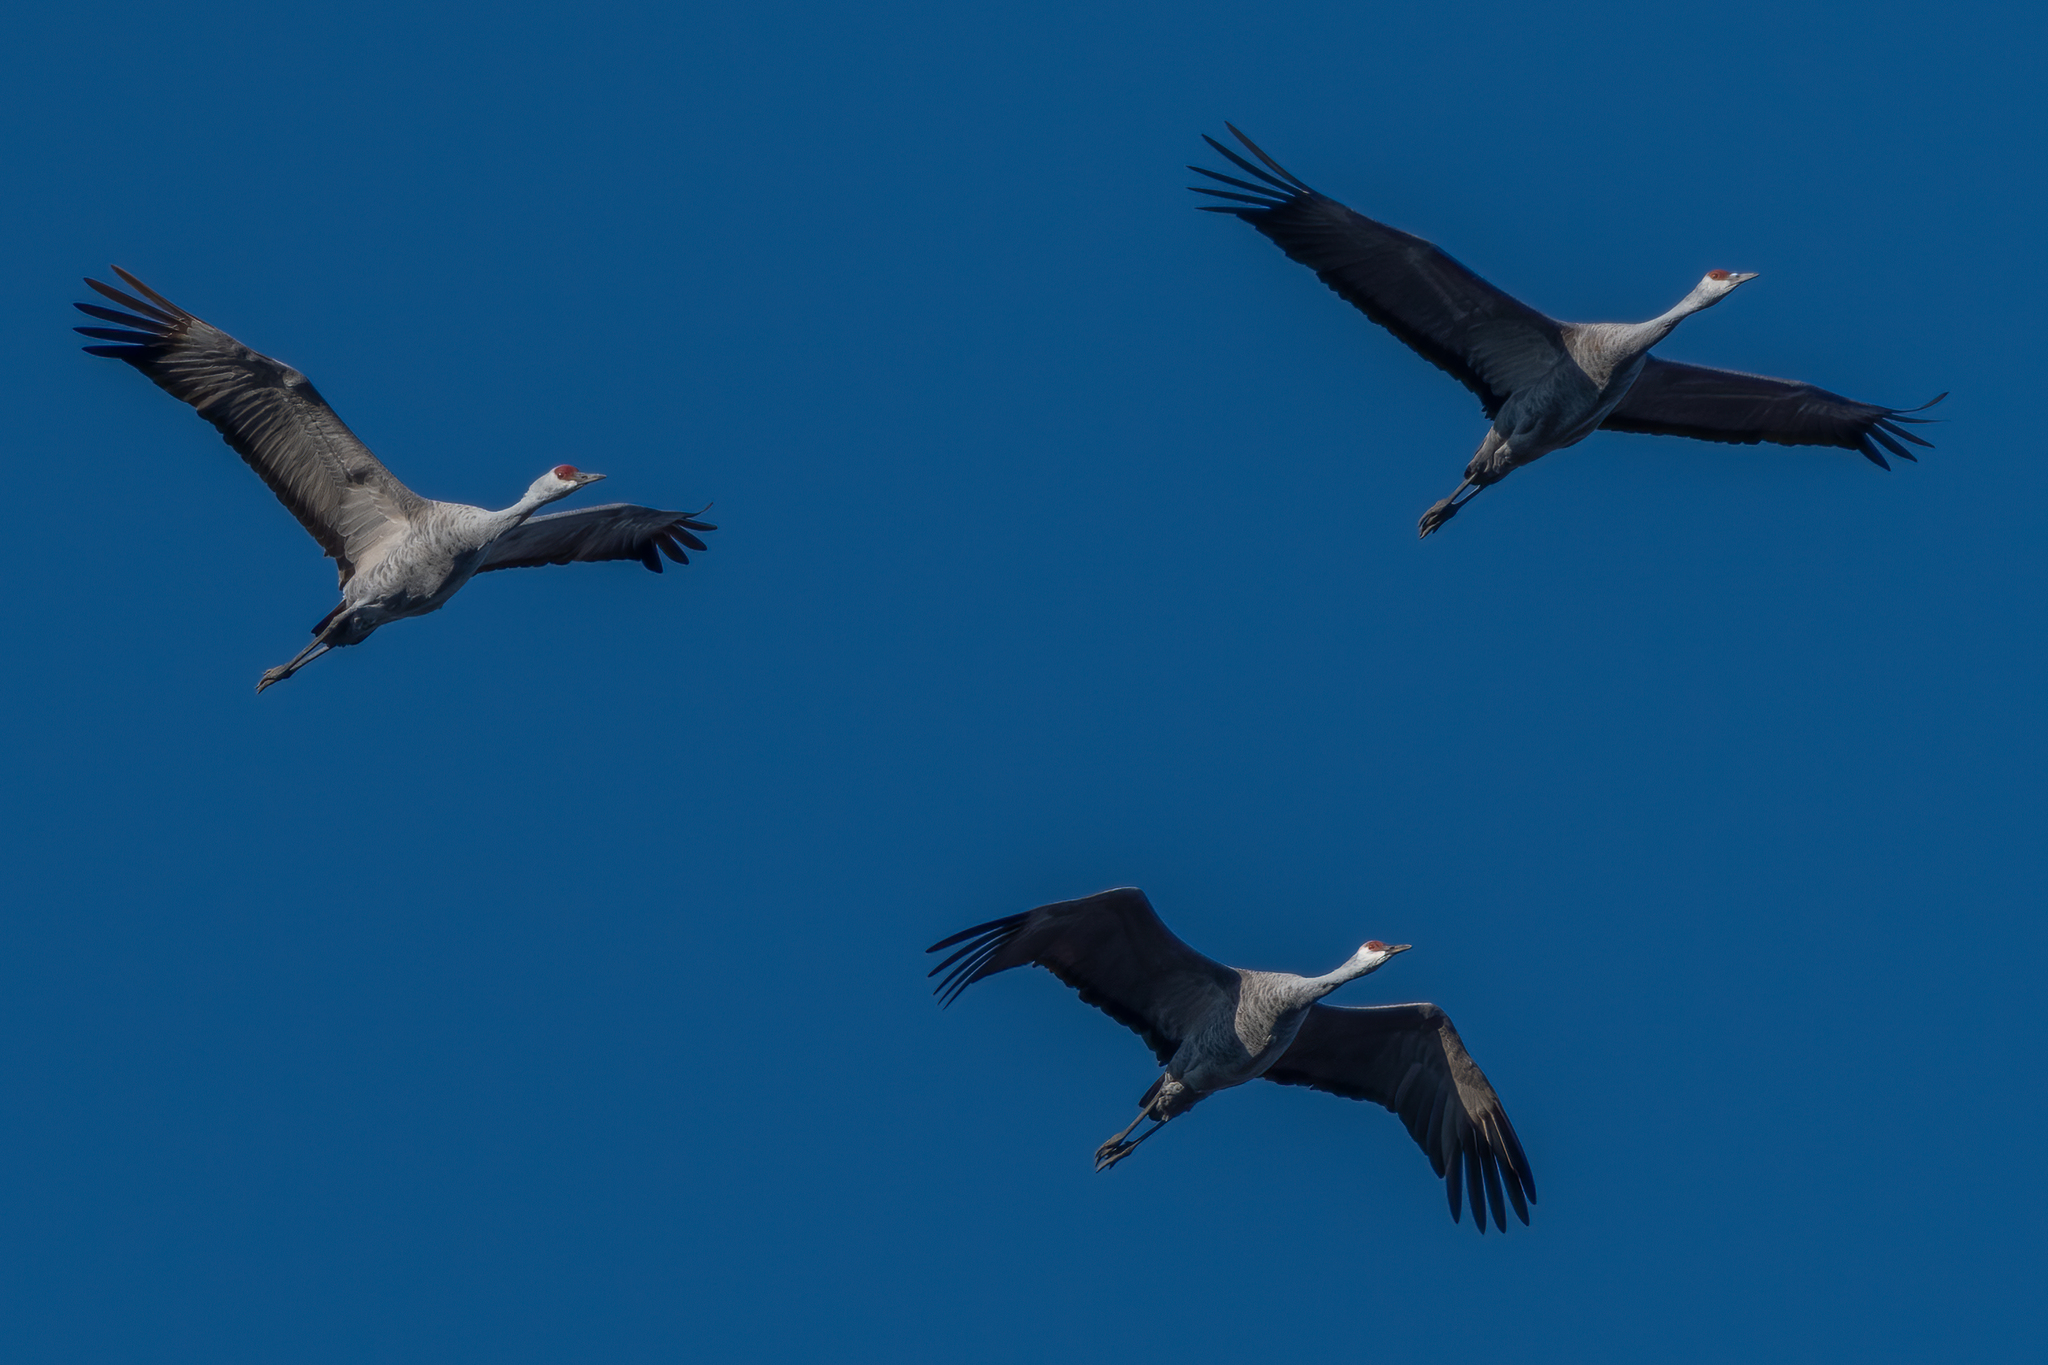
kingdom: Animalia
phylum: Chordata
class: Aves
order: Gruiformes
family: Gruidae
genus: Grus
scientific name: Grus canadensis
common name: Sandhill crane
